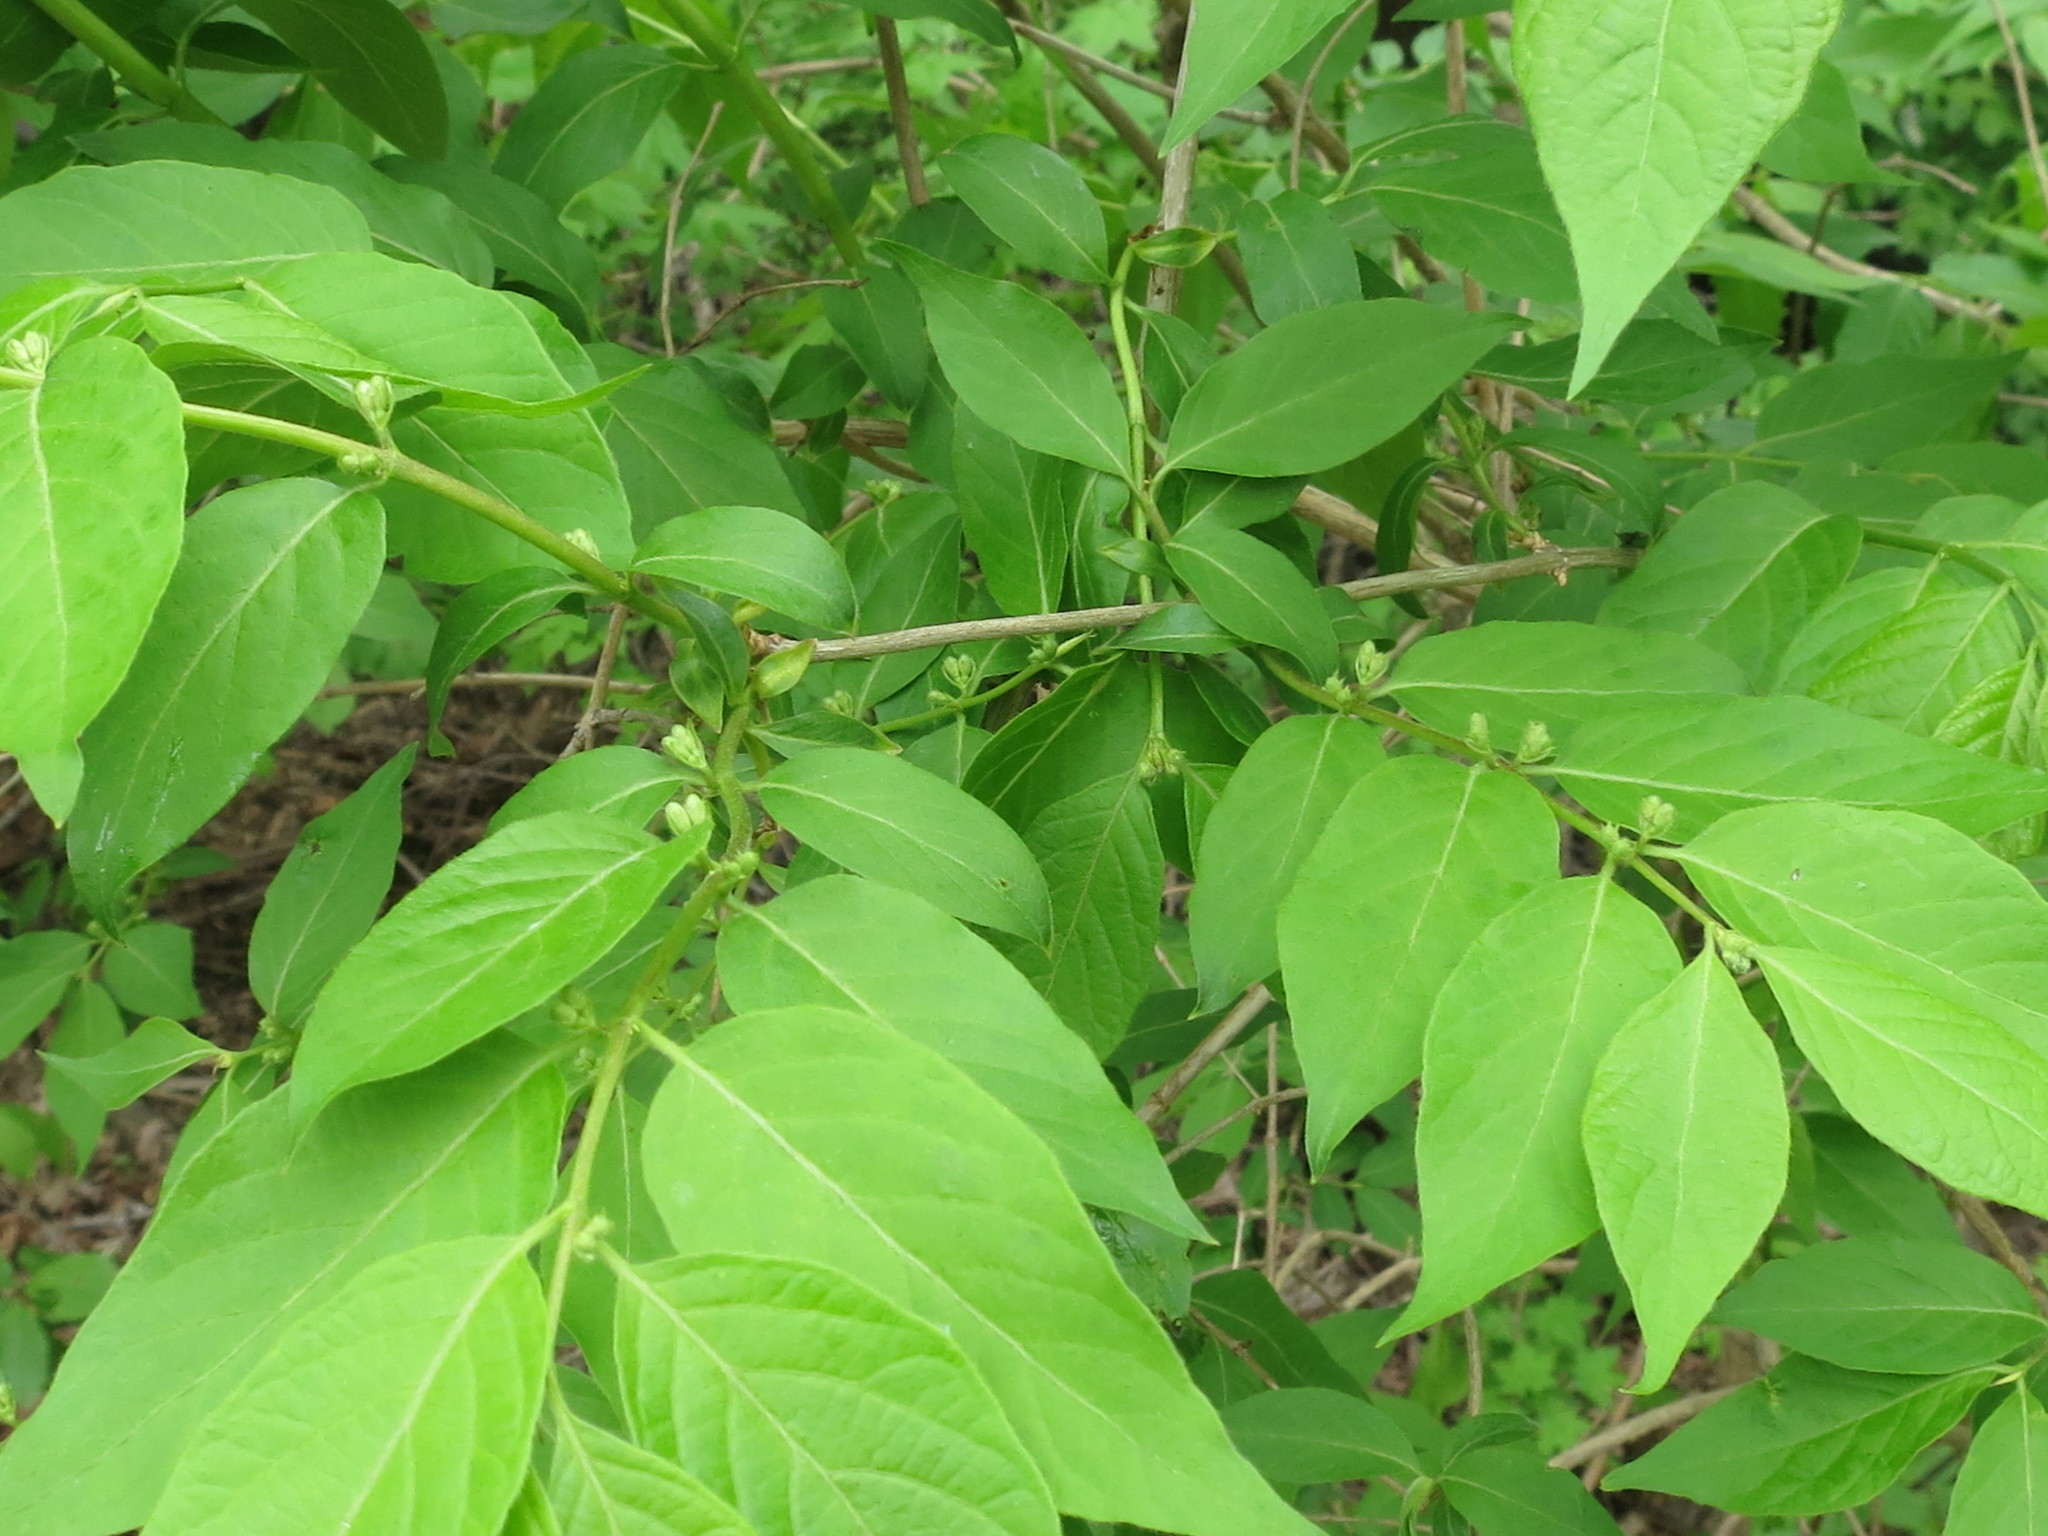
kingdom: Plantae
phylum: Tracheophyta
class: Magnoliopsida
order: Dipsacales
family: Caprifoliaceae
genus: Lonicera
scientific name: Lonicera maackii
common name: Amur honeysuckle
